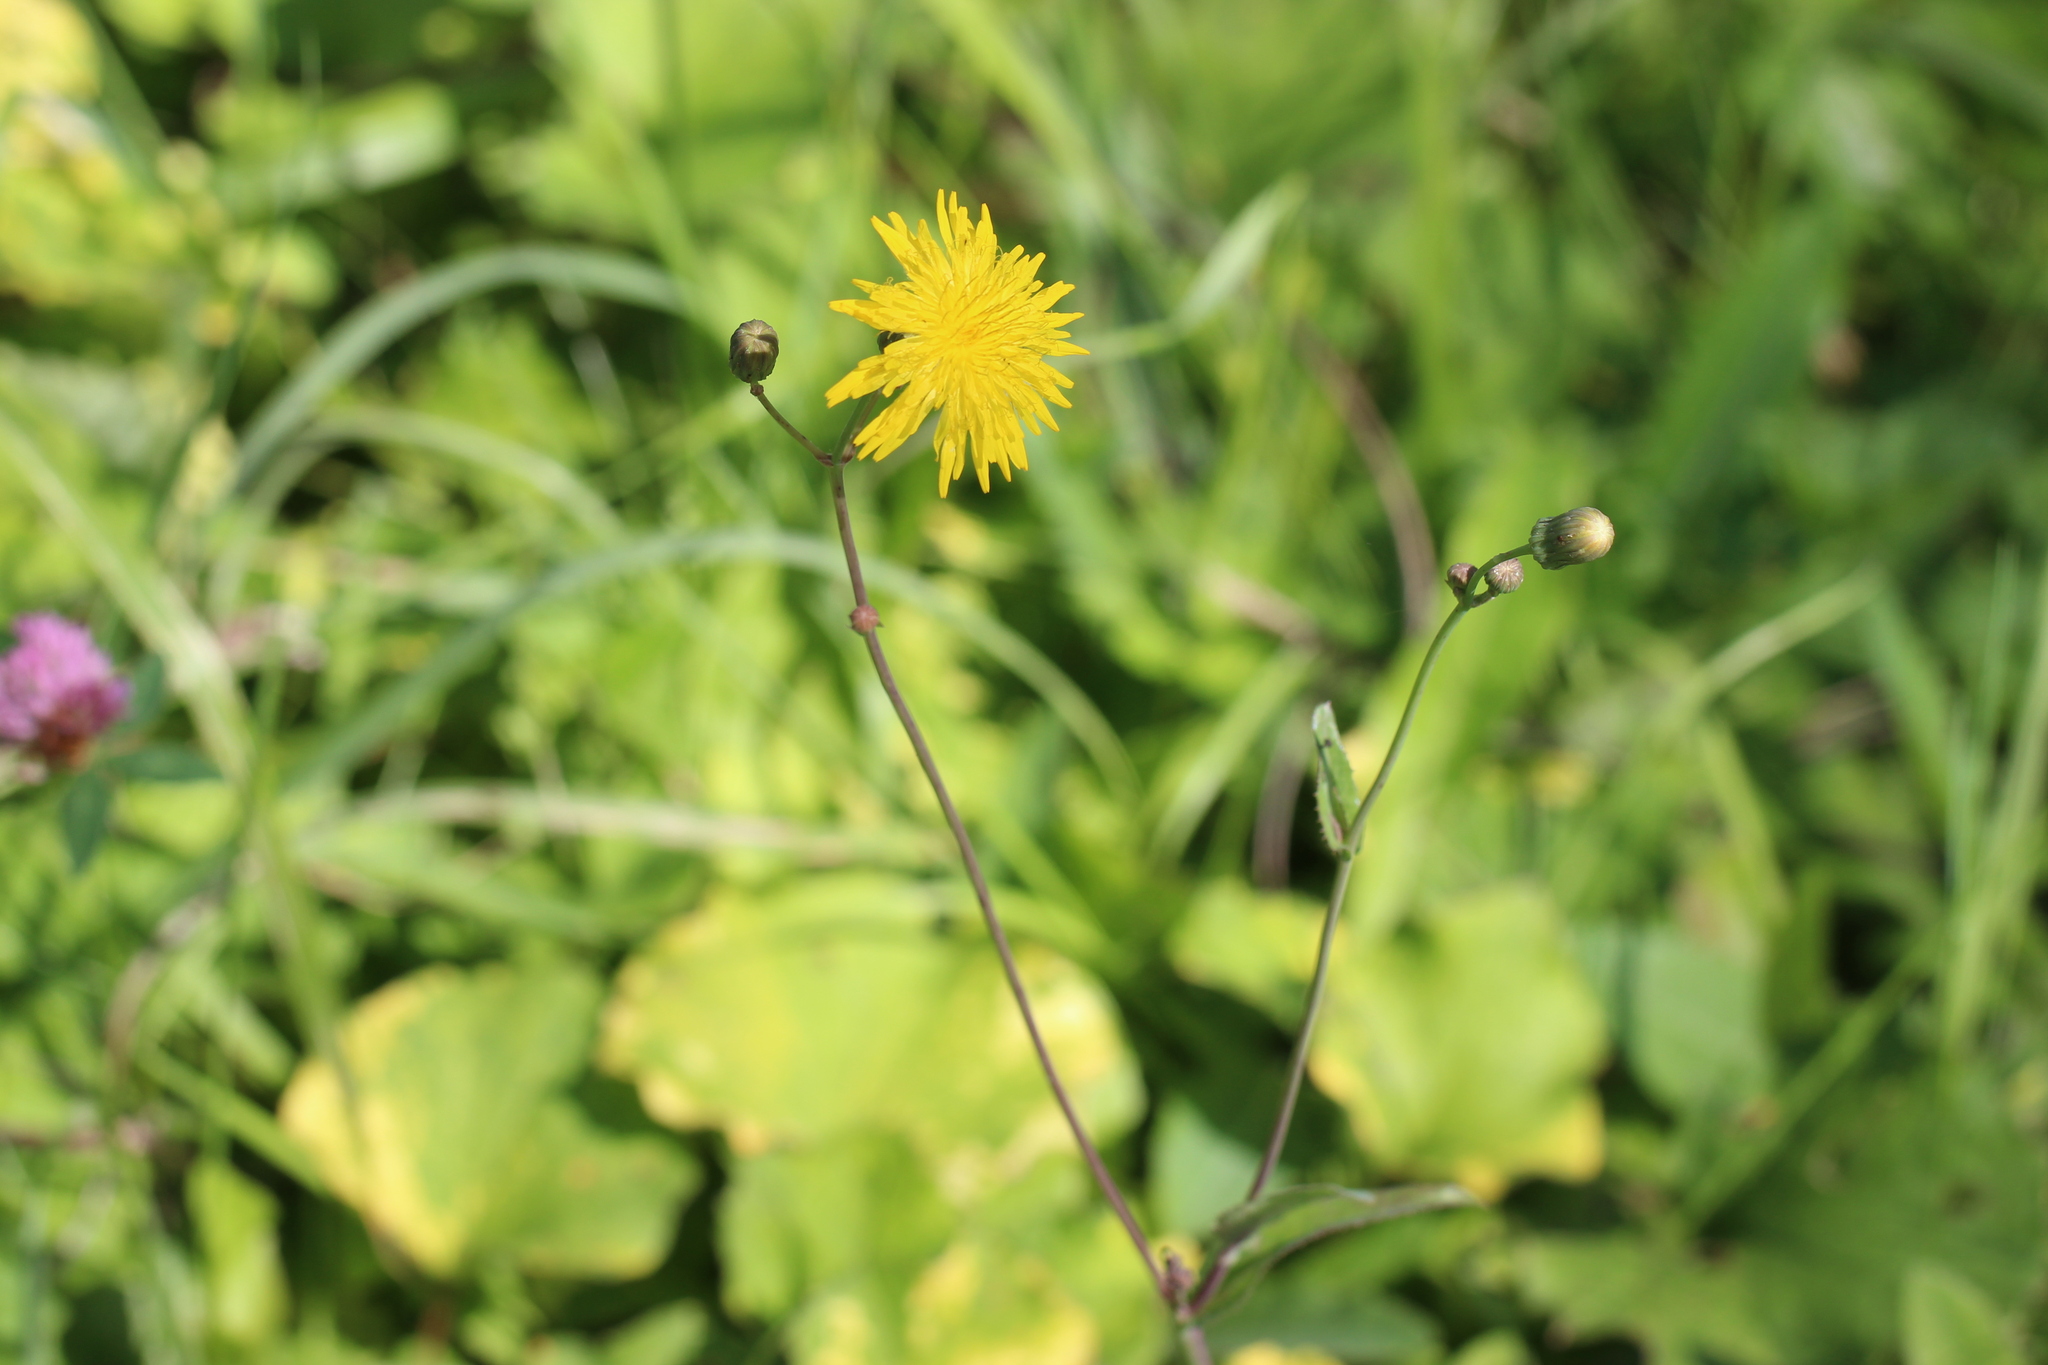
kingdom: Plantae
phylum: Tracheophyta
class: Magnoliopsida
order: Asterales
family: Asteraceae
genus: Sonchus
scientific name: Sonchus arvensis
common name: Perennial sow-thistle
